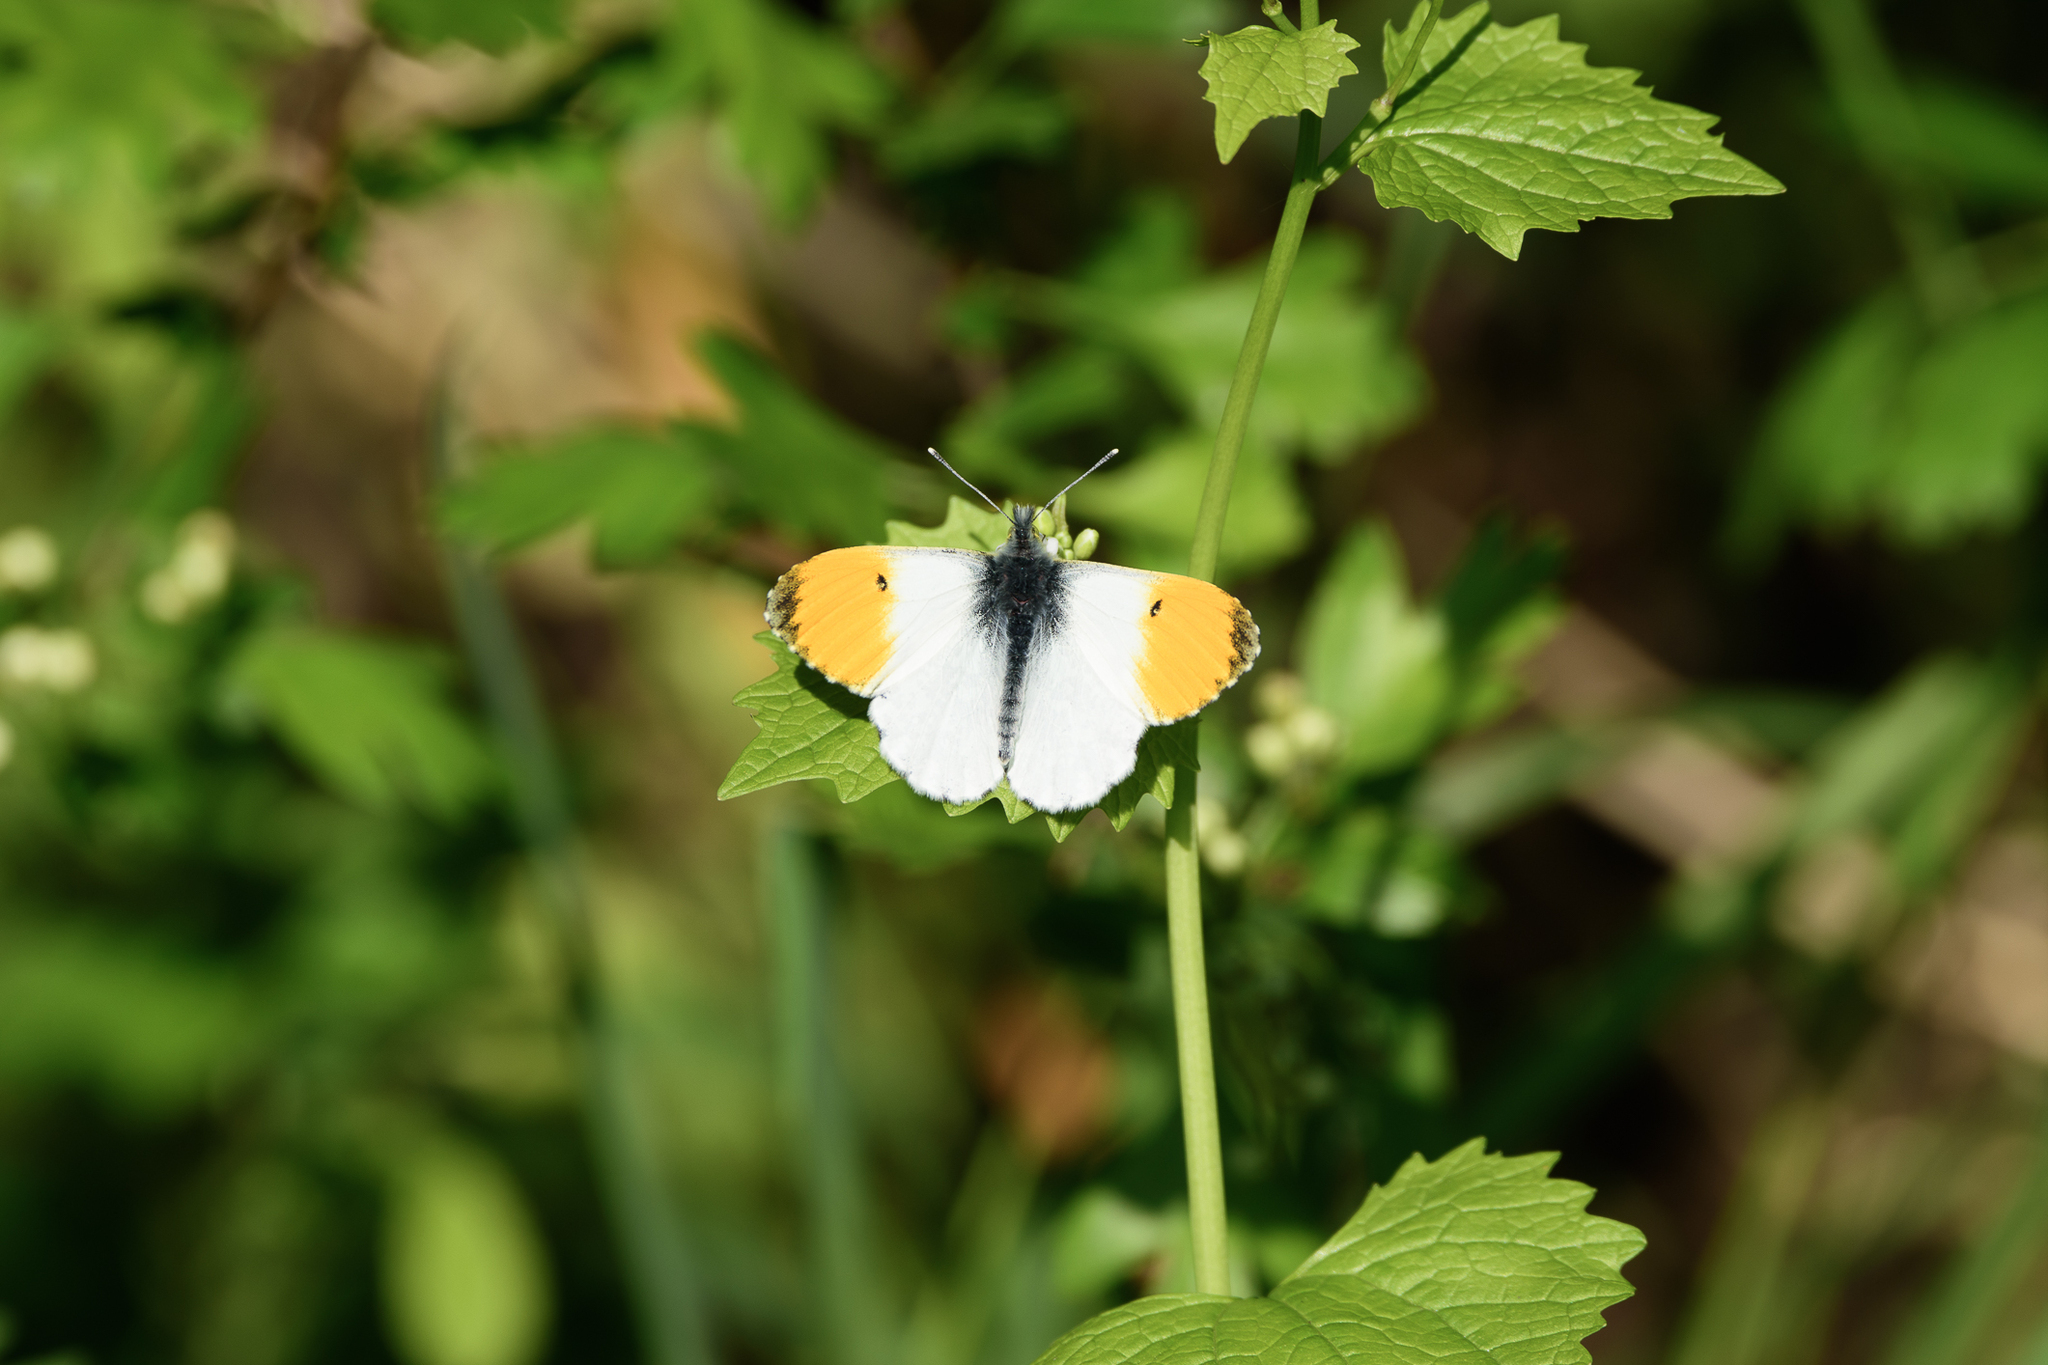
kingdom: Animalia
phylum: Arthropoda
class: Insecta
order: Lepidoptera
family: Pieridae
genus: Anthocharis
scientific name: Anthocharis cardamines
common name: Orange-tip
